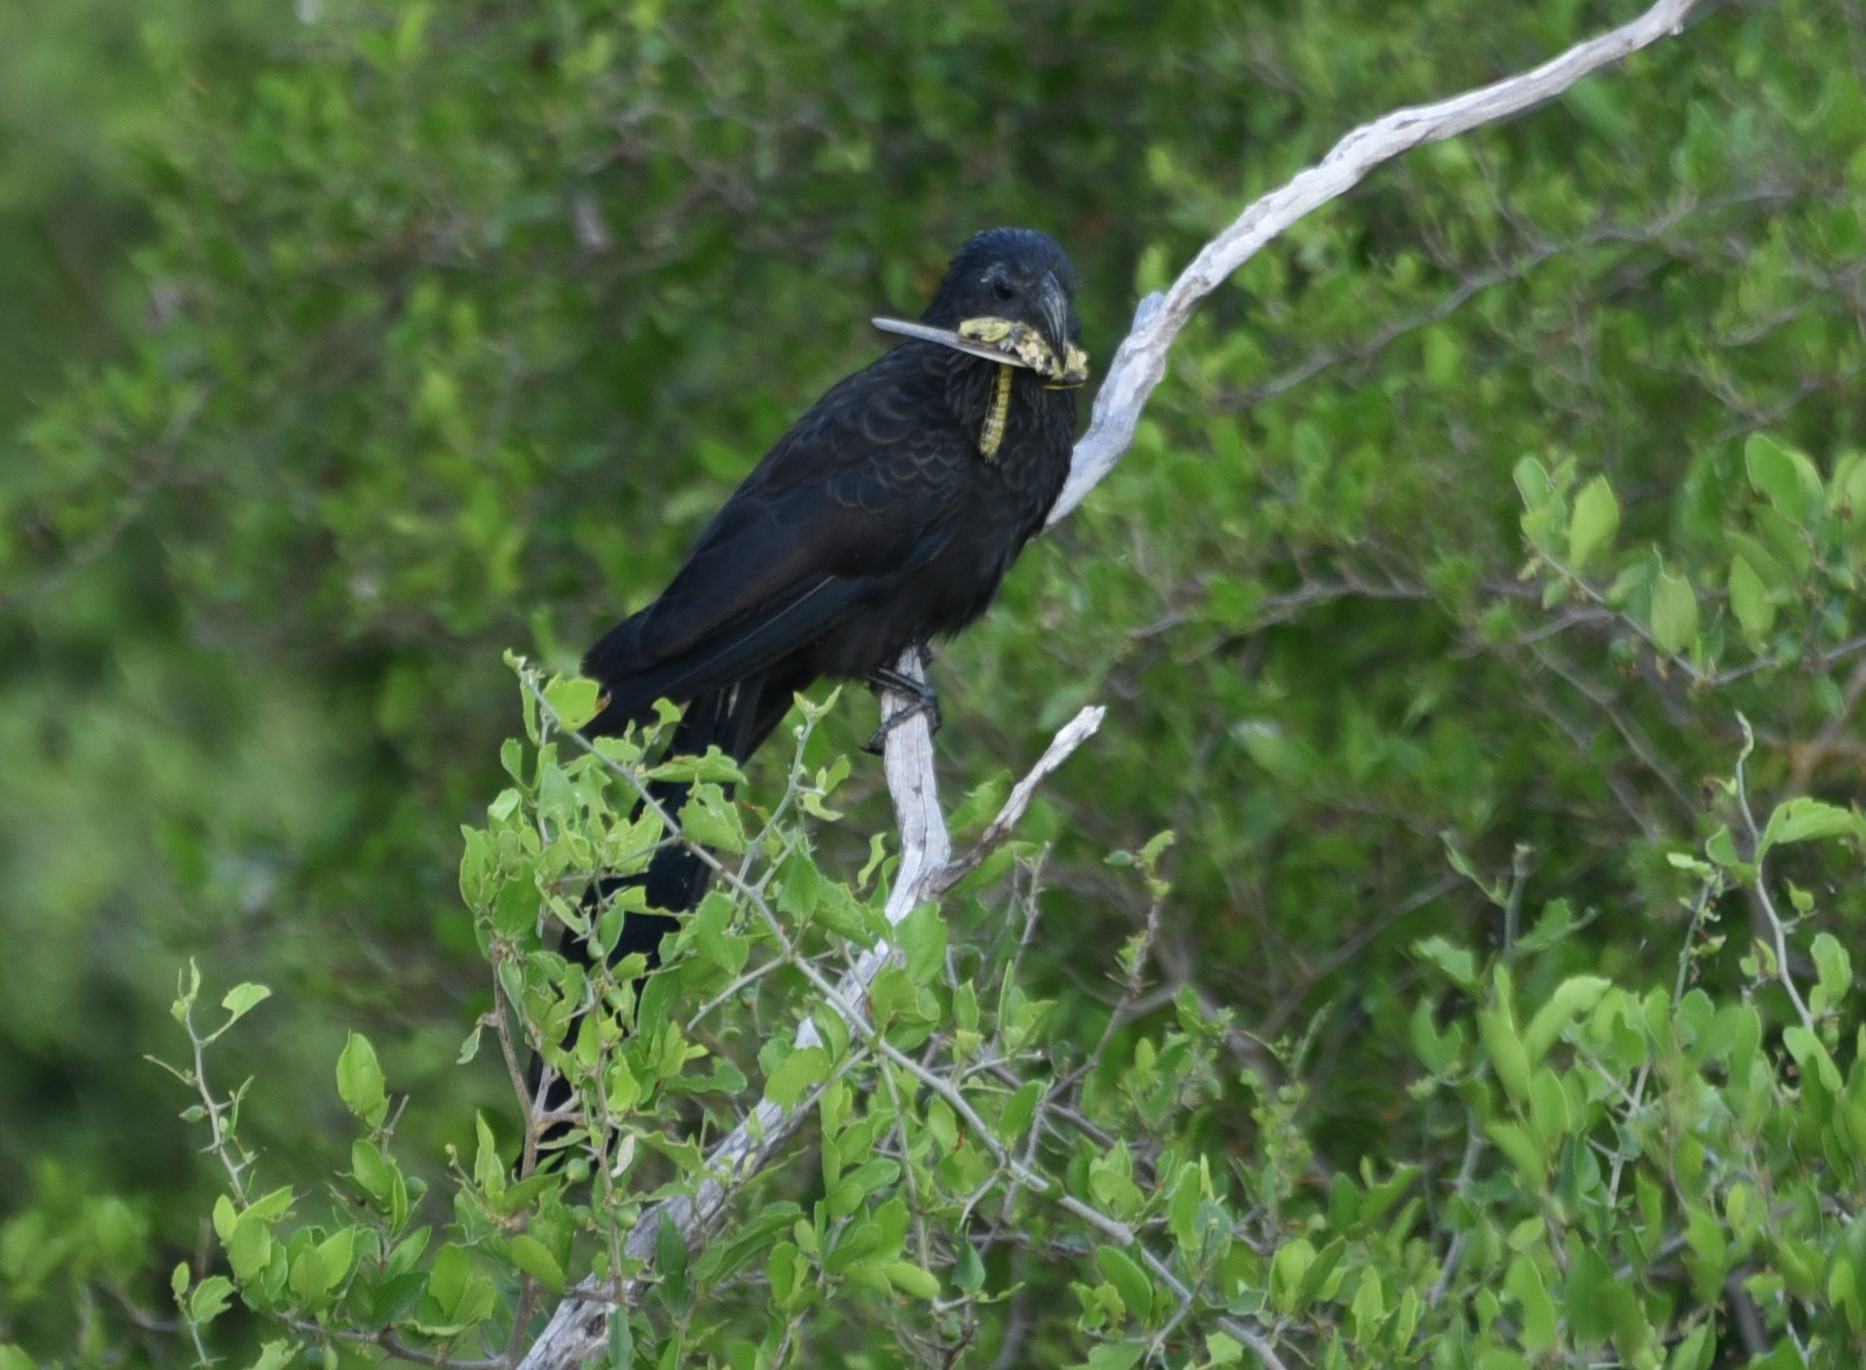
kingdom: Animalia
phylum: Chordata
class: Aves
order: Cuculiformes
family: Cuculidae
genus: Crotophaga
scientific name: Crotophaga sulcirostris
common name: Groove-billed ani
